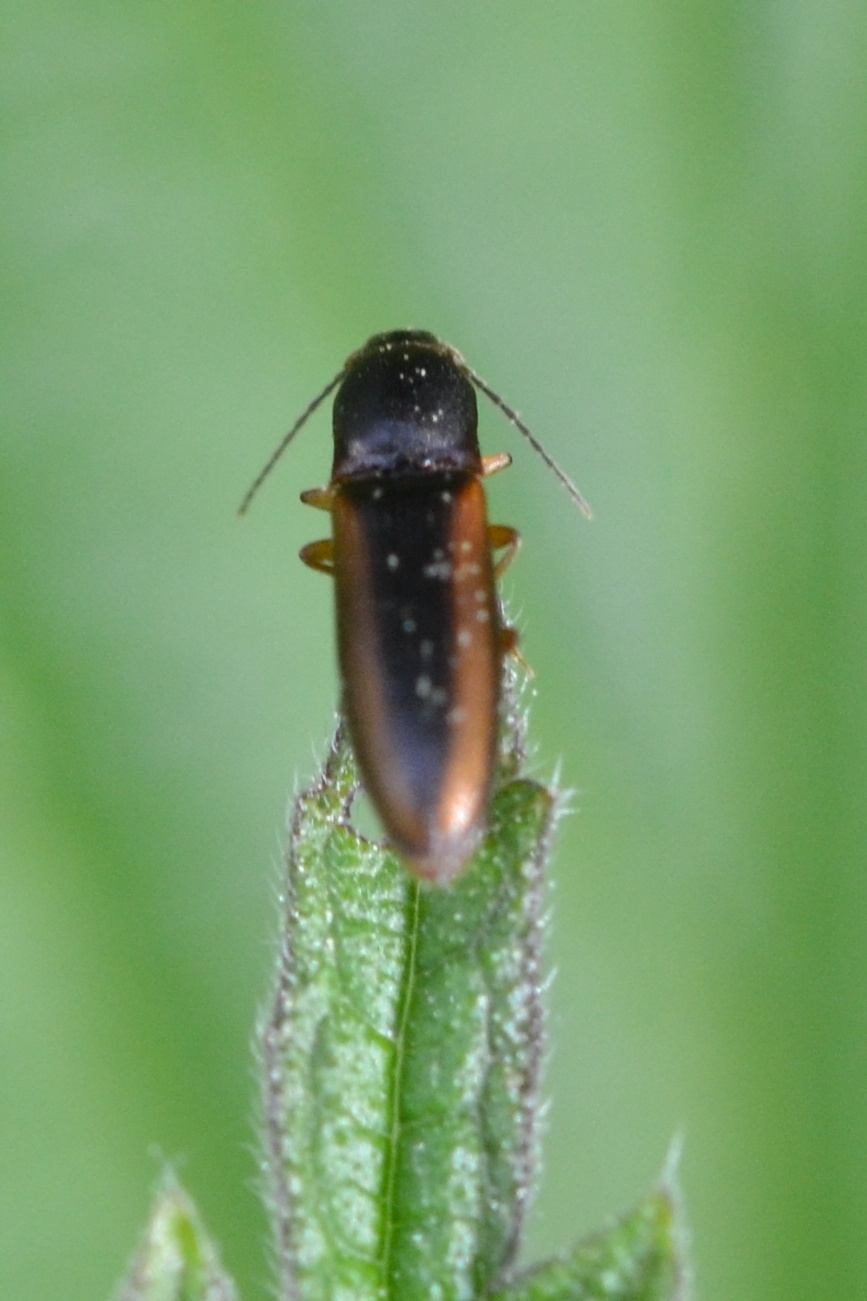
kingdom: Animalia
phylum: Arthropoda
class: Insecta
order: Coleoptera
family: Elateridae
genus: Dalopius
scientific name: Dalopius marginatus
